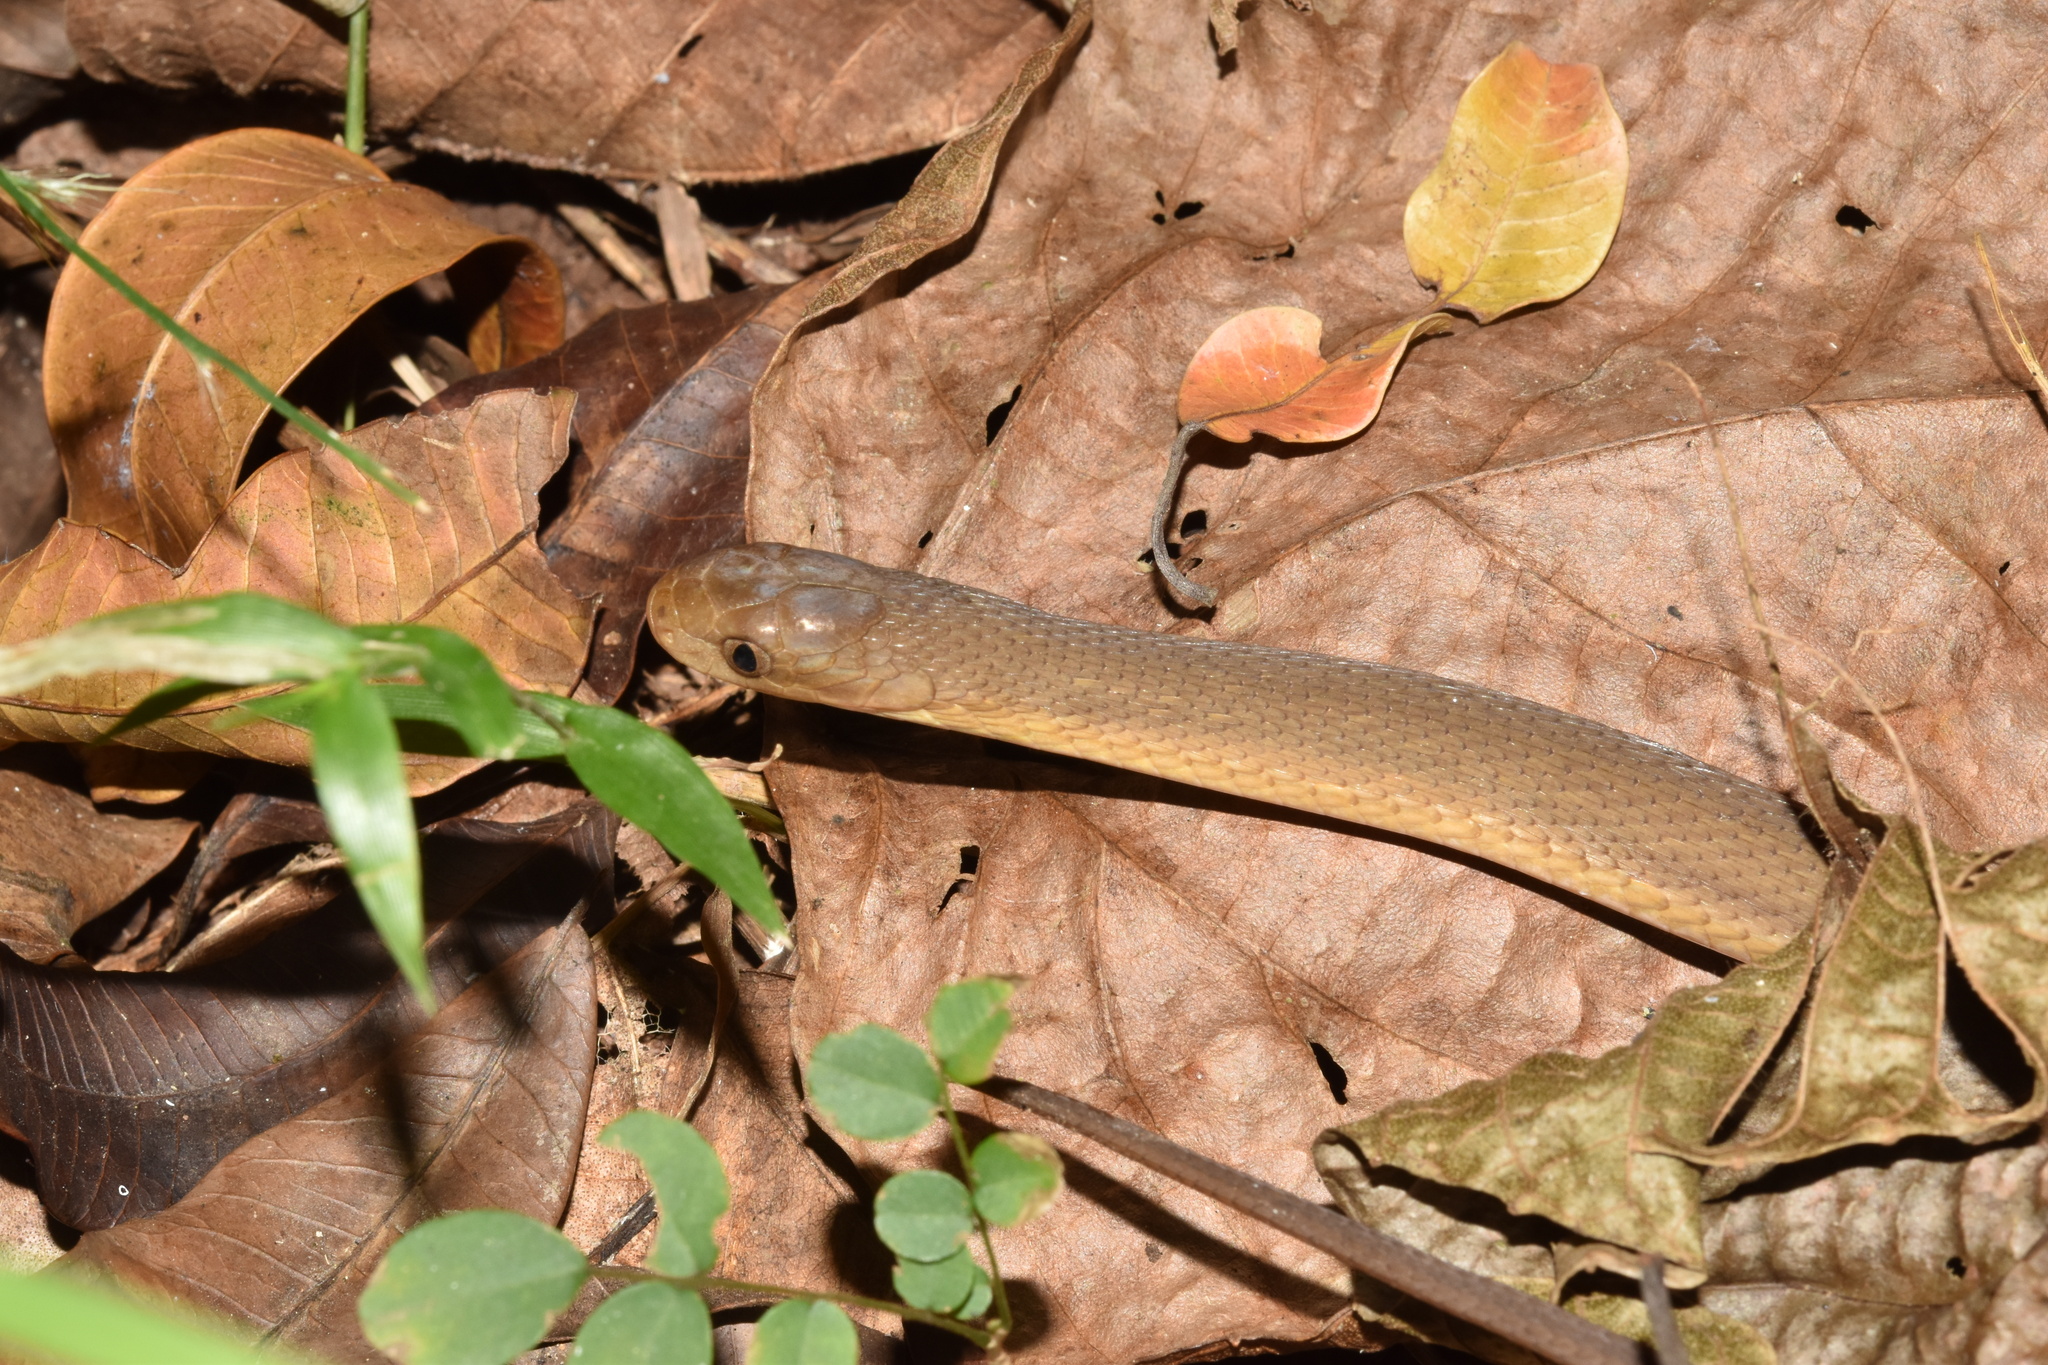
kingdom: Animalia
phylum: Chordata
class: Squamata
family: Colubridae
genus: Dasypeltis
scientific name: Dasypeltis inornata
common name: Southern brown egg eater
